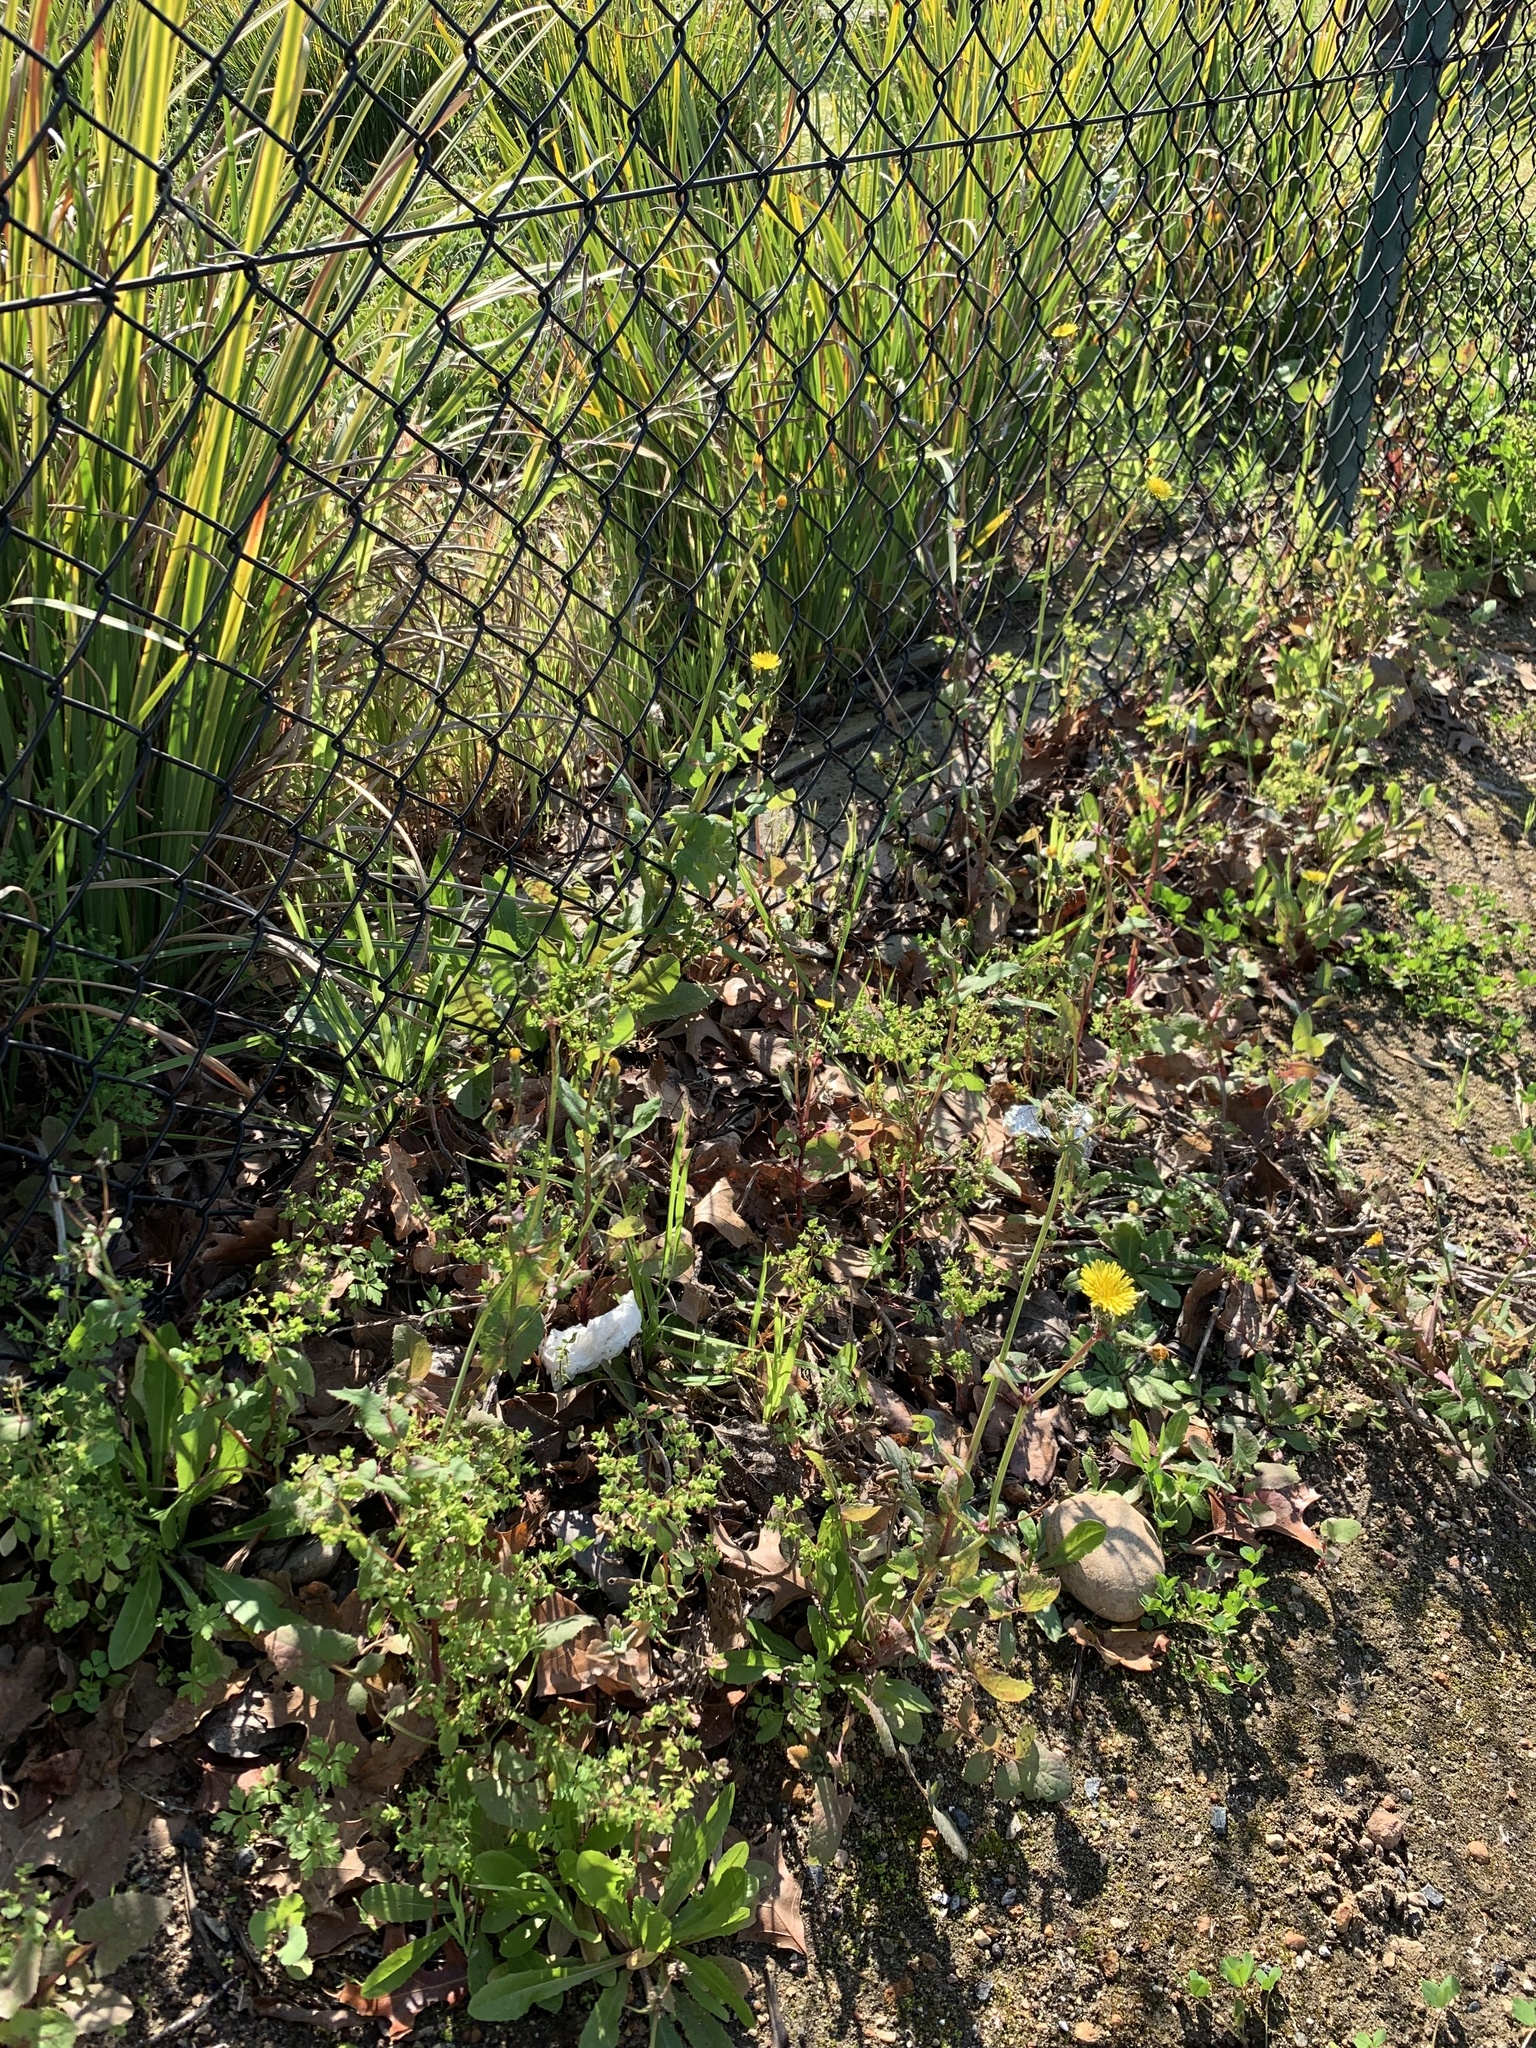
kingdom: Plantae
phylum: Tracheophyta
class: Magnoliopsida
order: Asterales
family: Asteraceae
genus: Sonchus
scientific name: Sonchus oleraceus
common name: Common sowthistle
